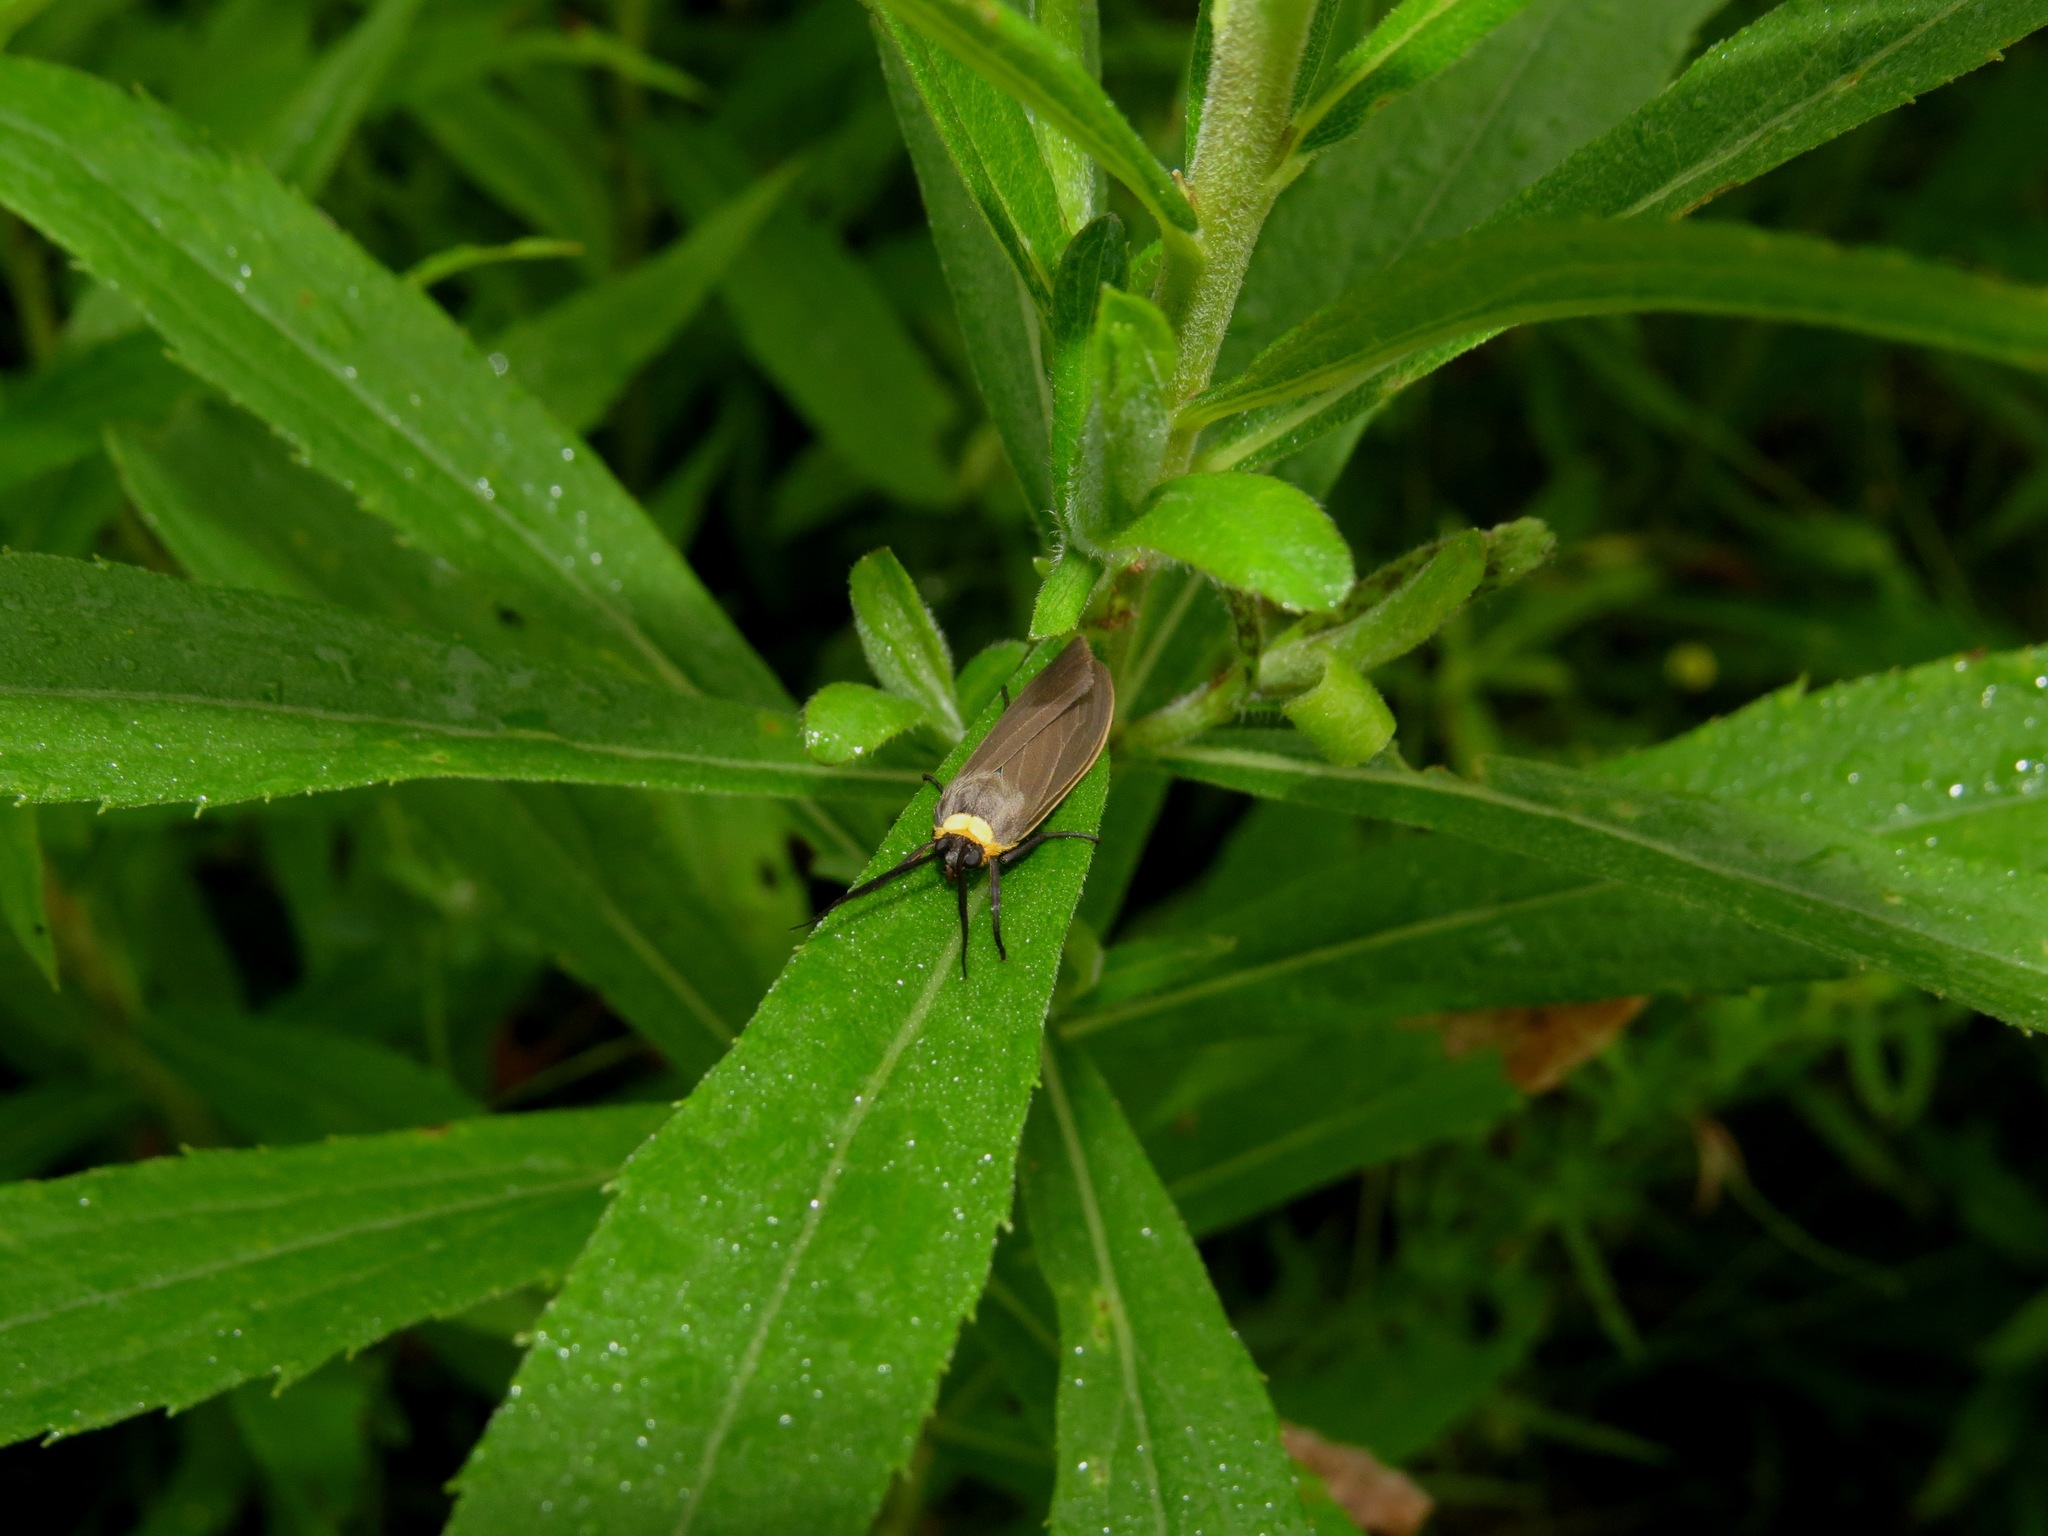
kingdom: Animalia
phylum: Arthropoda
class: Insecta
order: Lepidoptera
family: Erebidae
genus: Cisseps
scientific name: Cisseps fulvicollis
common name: Yellow-collared scape moth
